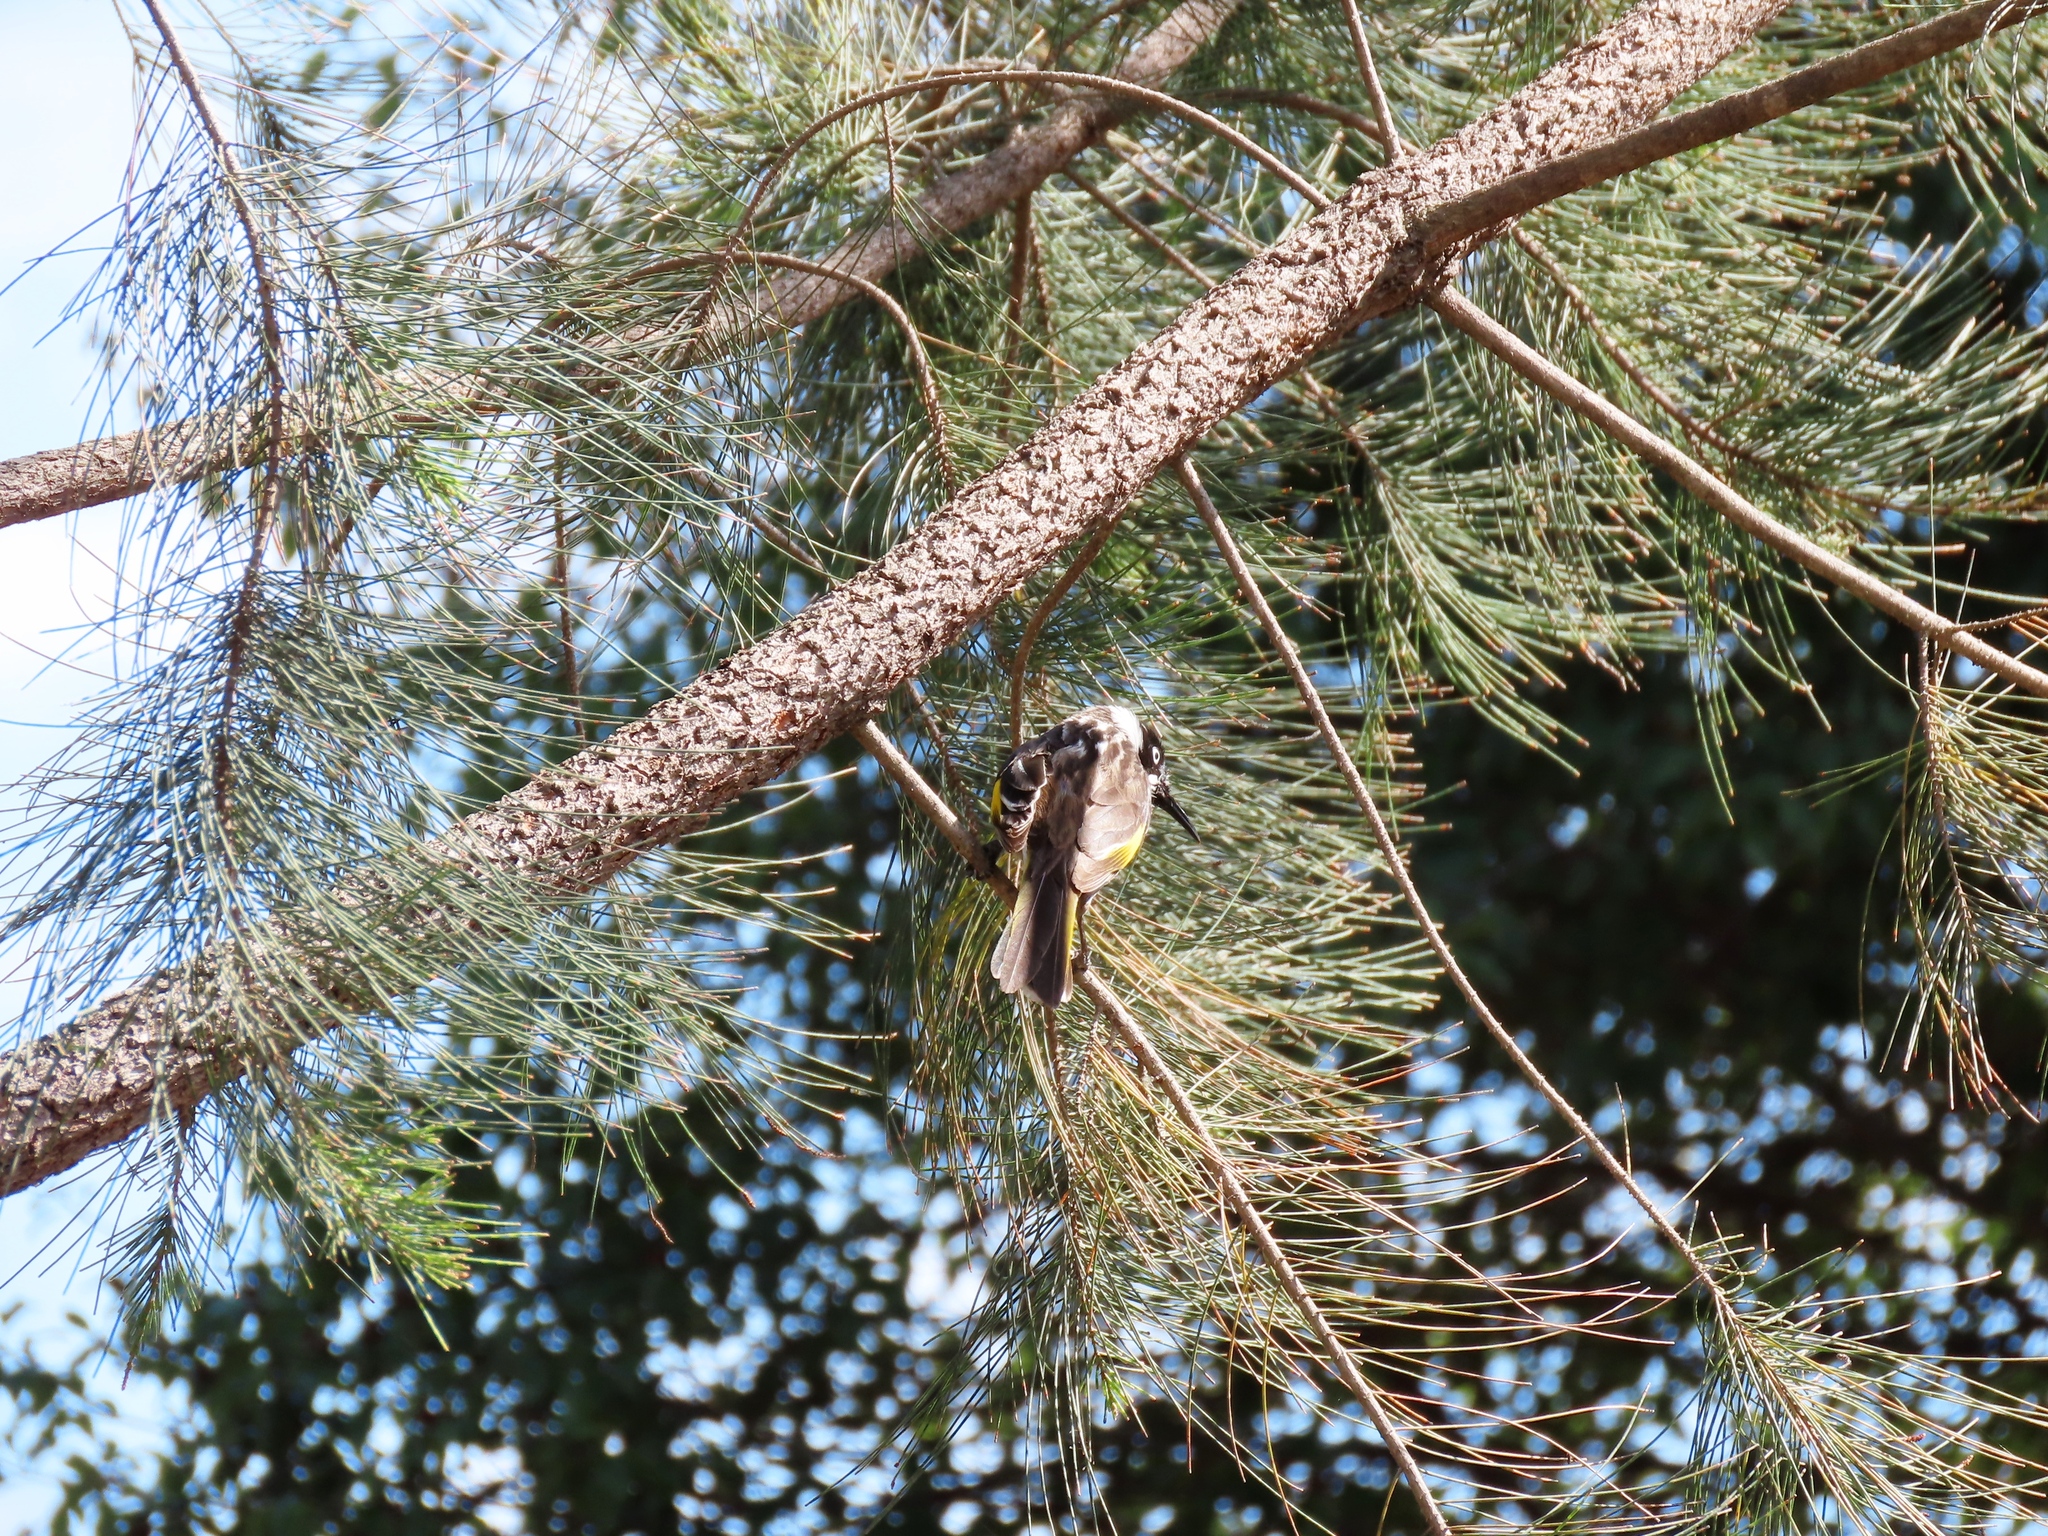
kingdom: Animalia
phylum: Chordata
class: Aves
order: Passeriformes
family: Meliphagidae
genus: Phylidonyris
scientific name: Phylidonyris novaehollandiae
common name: New holland honeyeater
